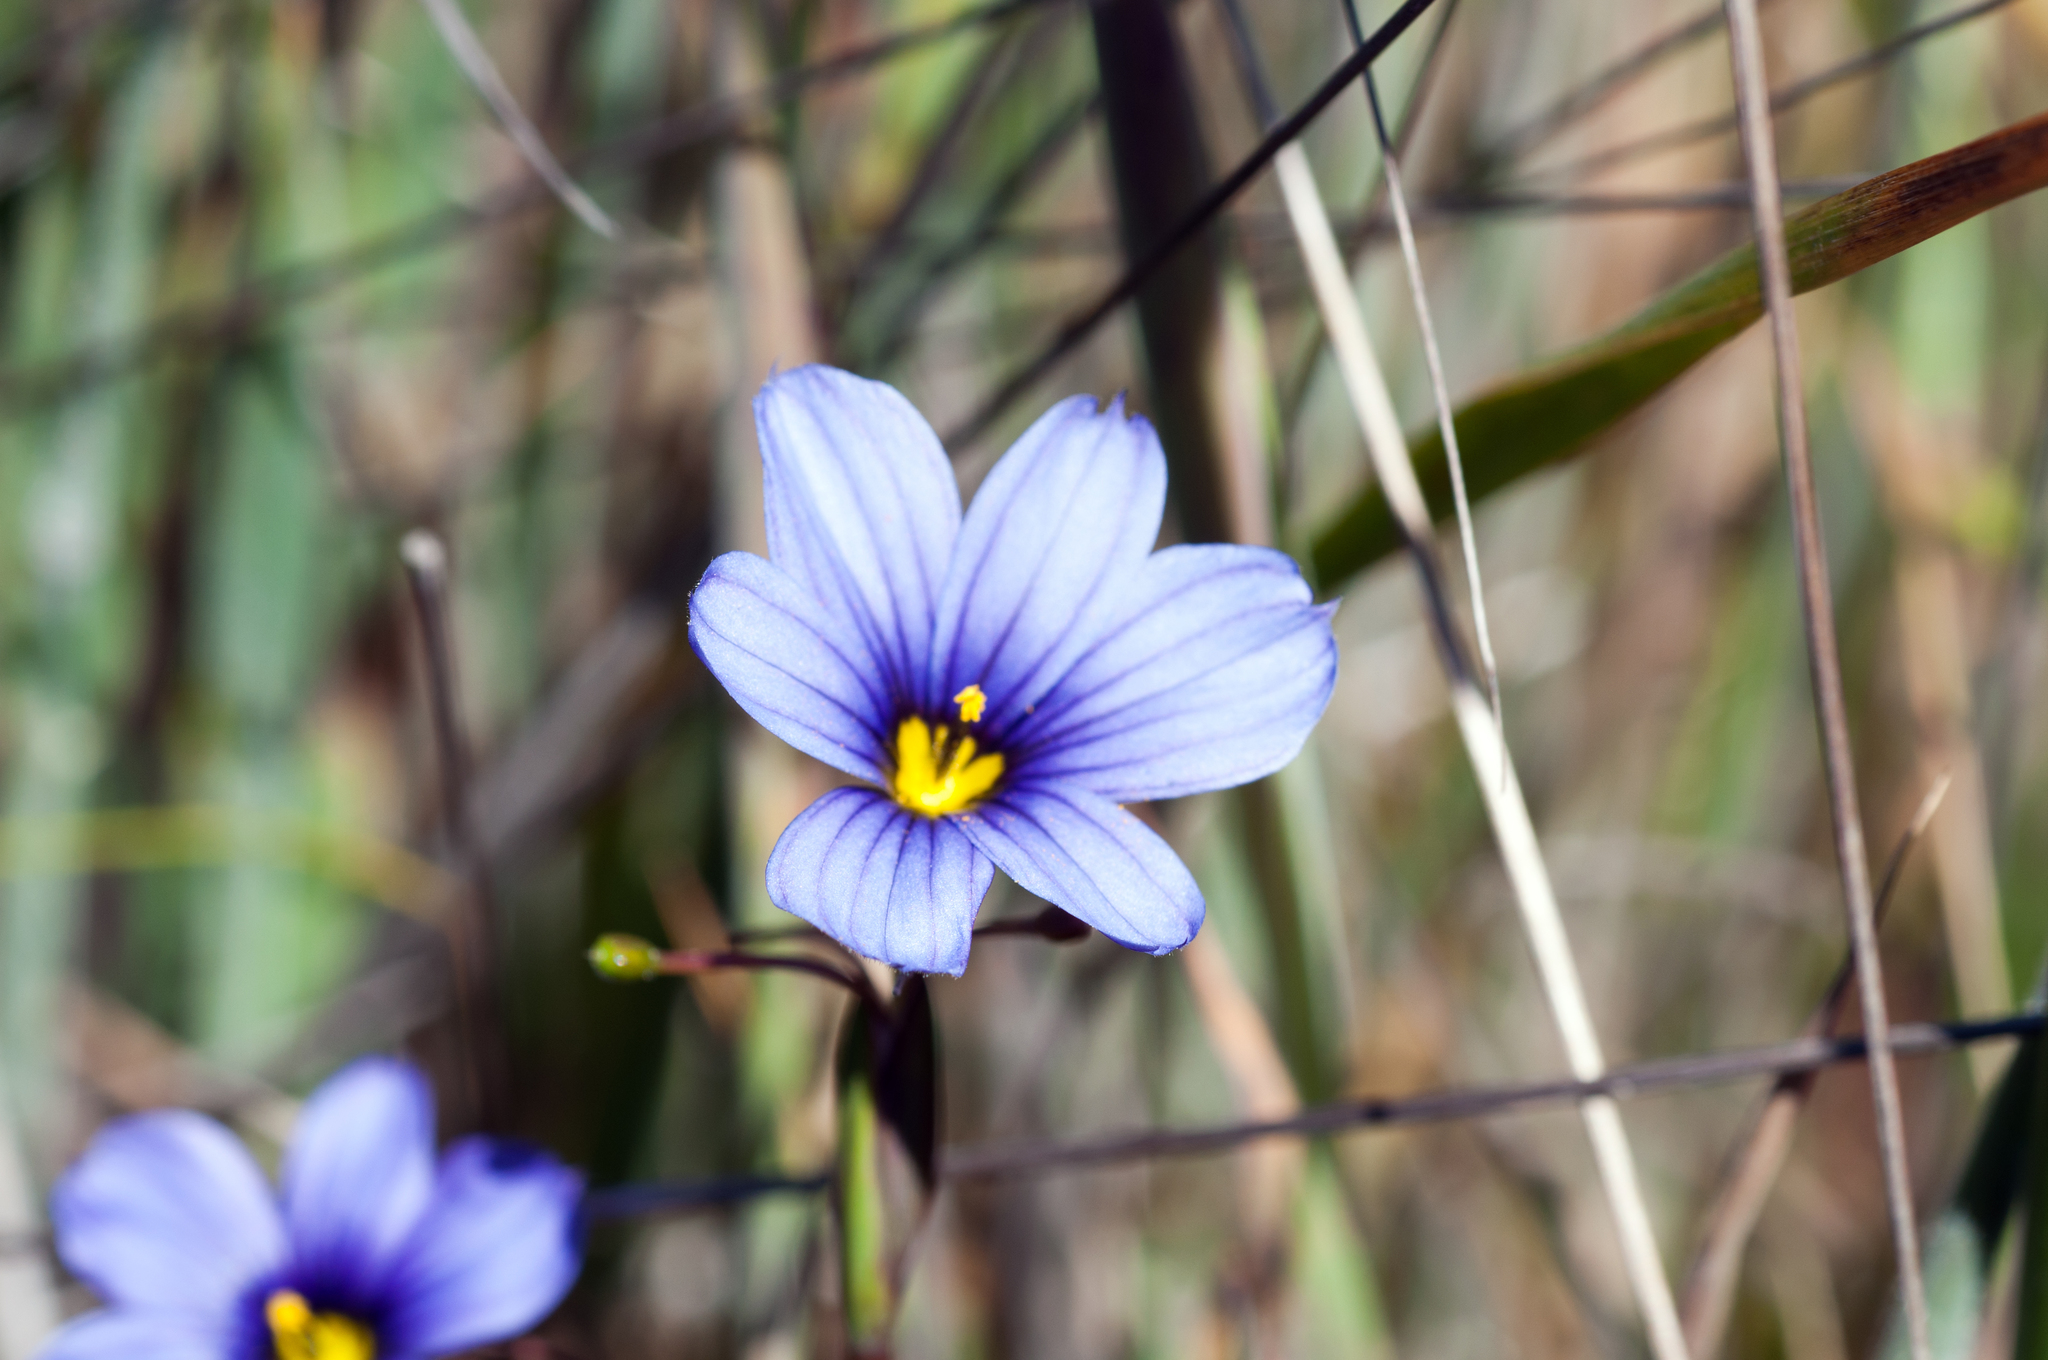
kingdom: Plantae
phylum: Tracheophyta
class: Liliopsida
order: Asparagales
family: Iridaceae
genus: Sisyrinchium
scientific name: Sisyrinchium bellum
